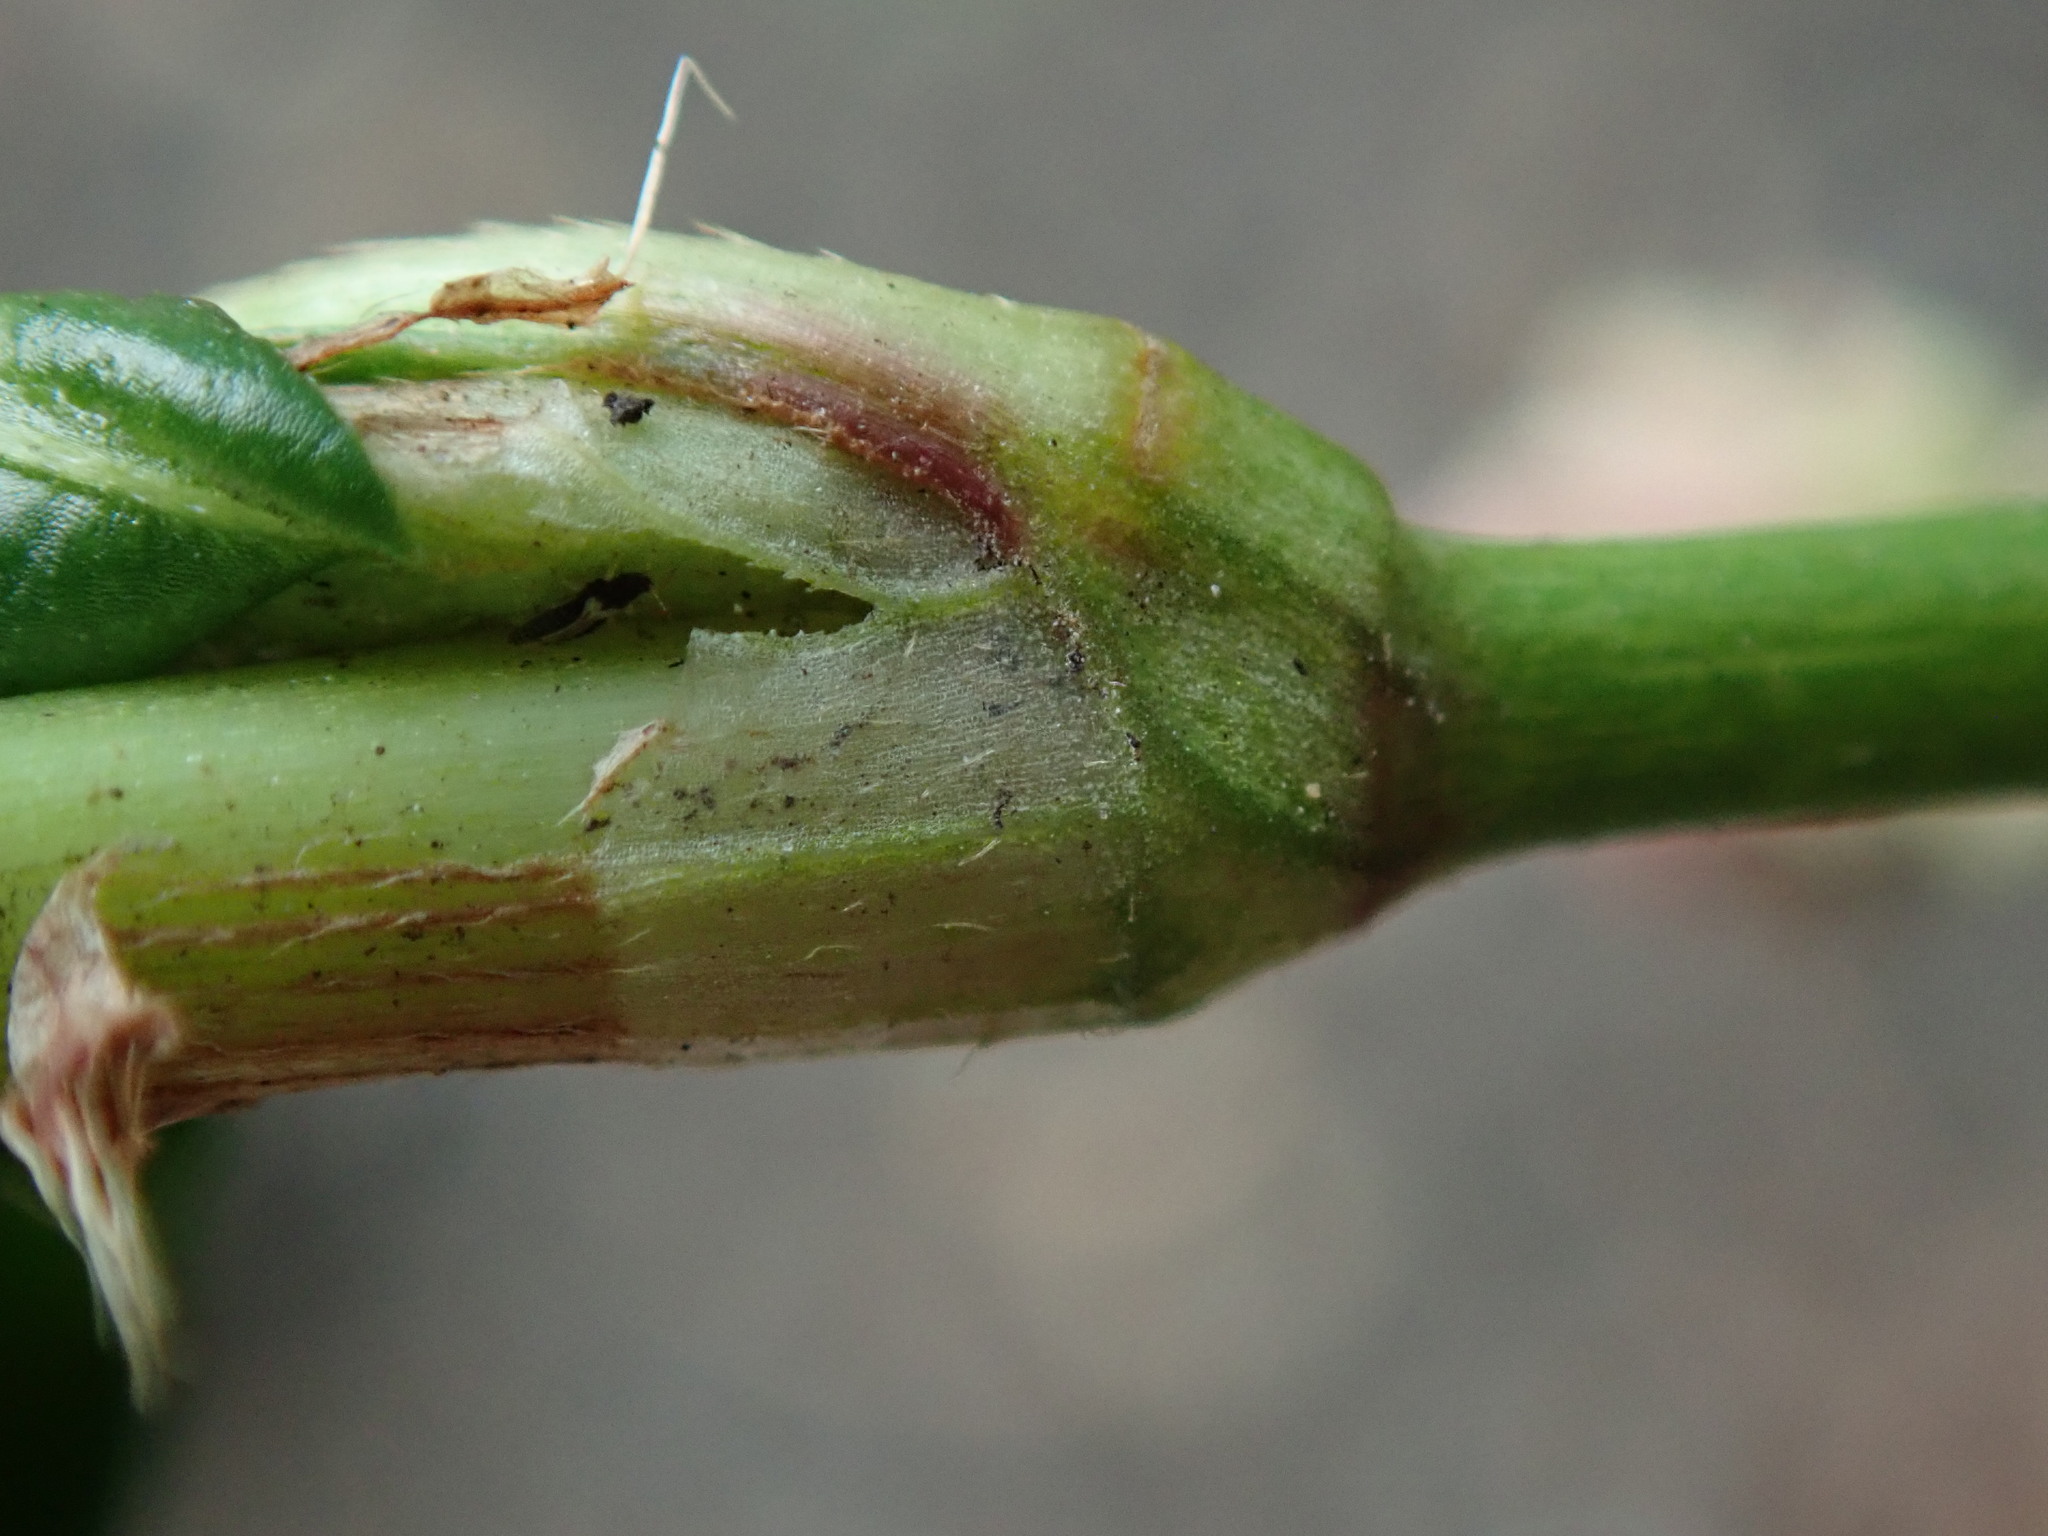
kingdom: Plantae
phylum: Tracheophyta
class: Magnoliopsida
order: Caryophyllales
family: Polygonaceae
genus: Persicaria
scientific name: Persicaria maculosa
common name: Redshank
